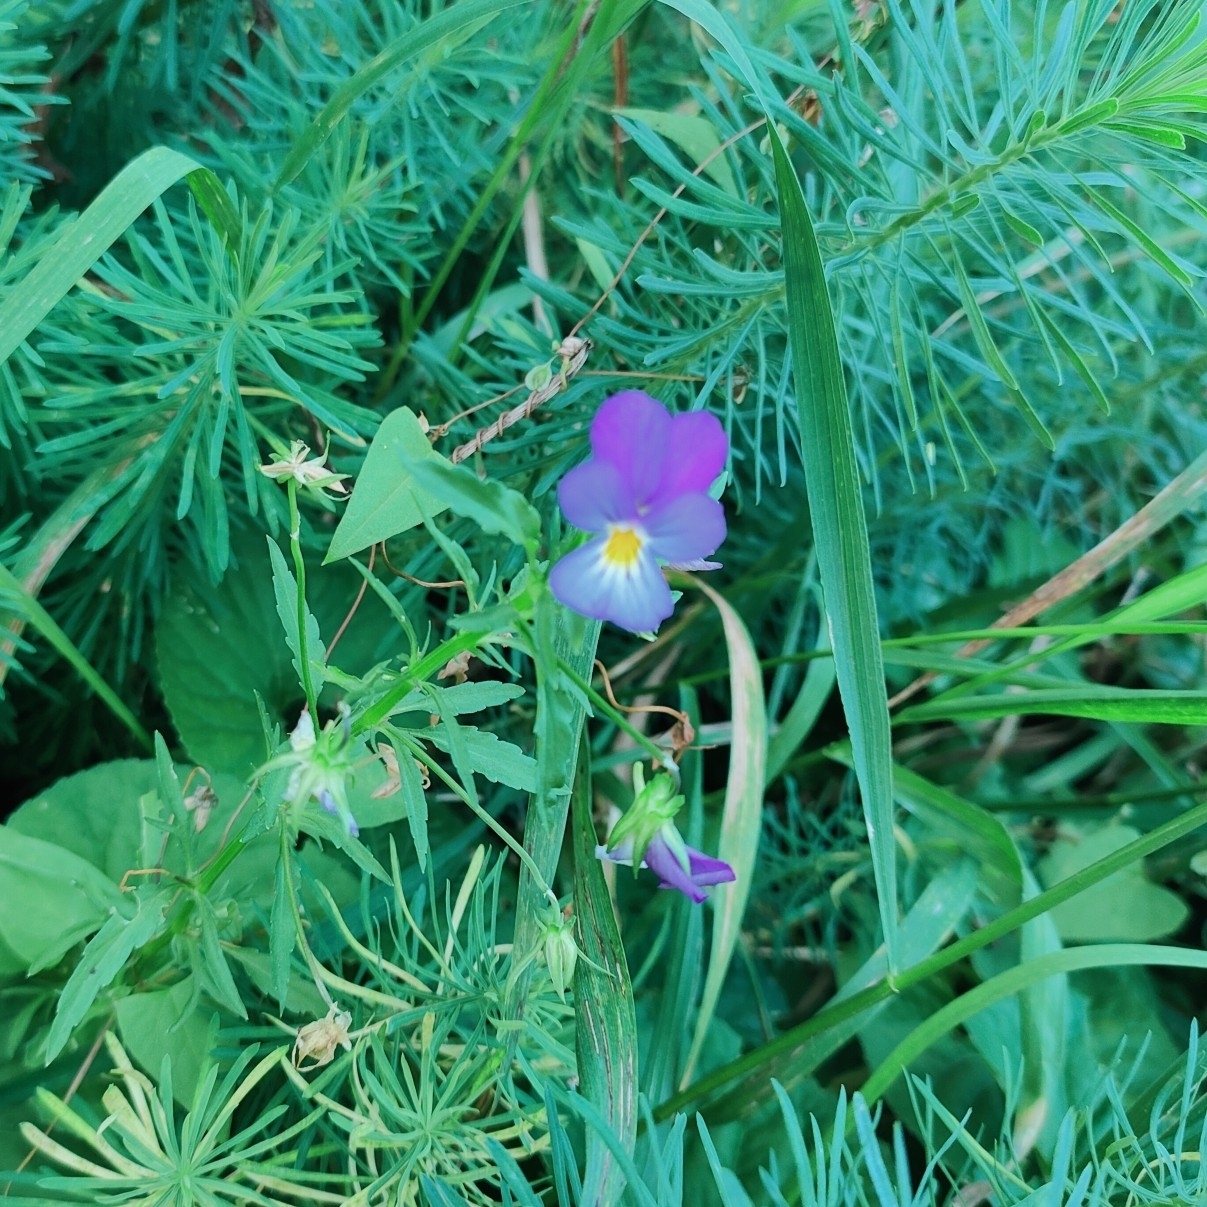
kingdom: Plantae
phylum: Tracheophyta
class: Magnoliopsida
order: Malpighiales
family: Violaceae
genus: Viola
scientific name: Viola tricolor
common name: Pansy
